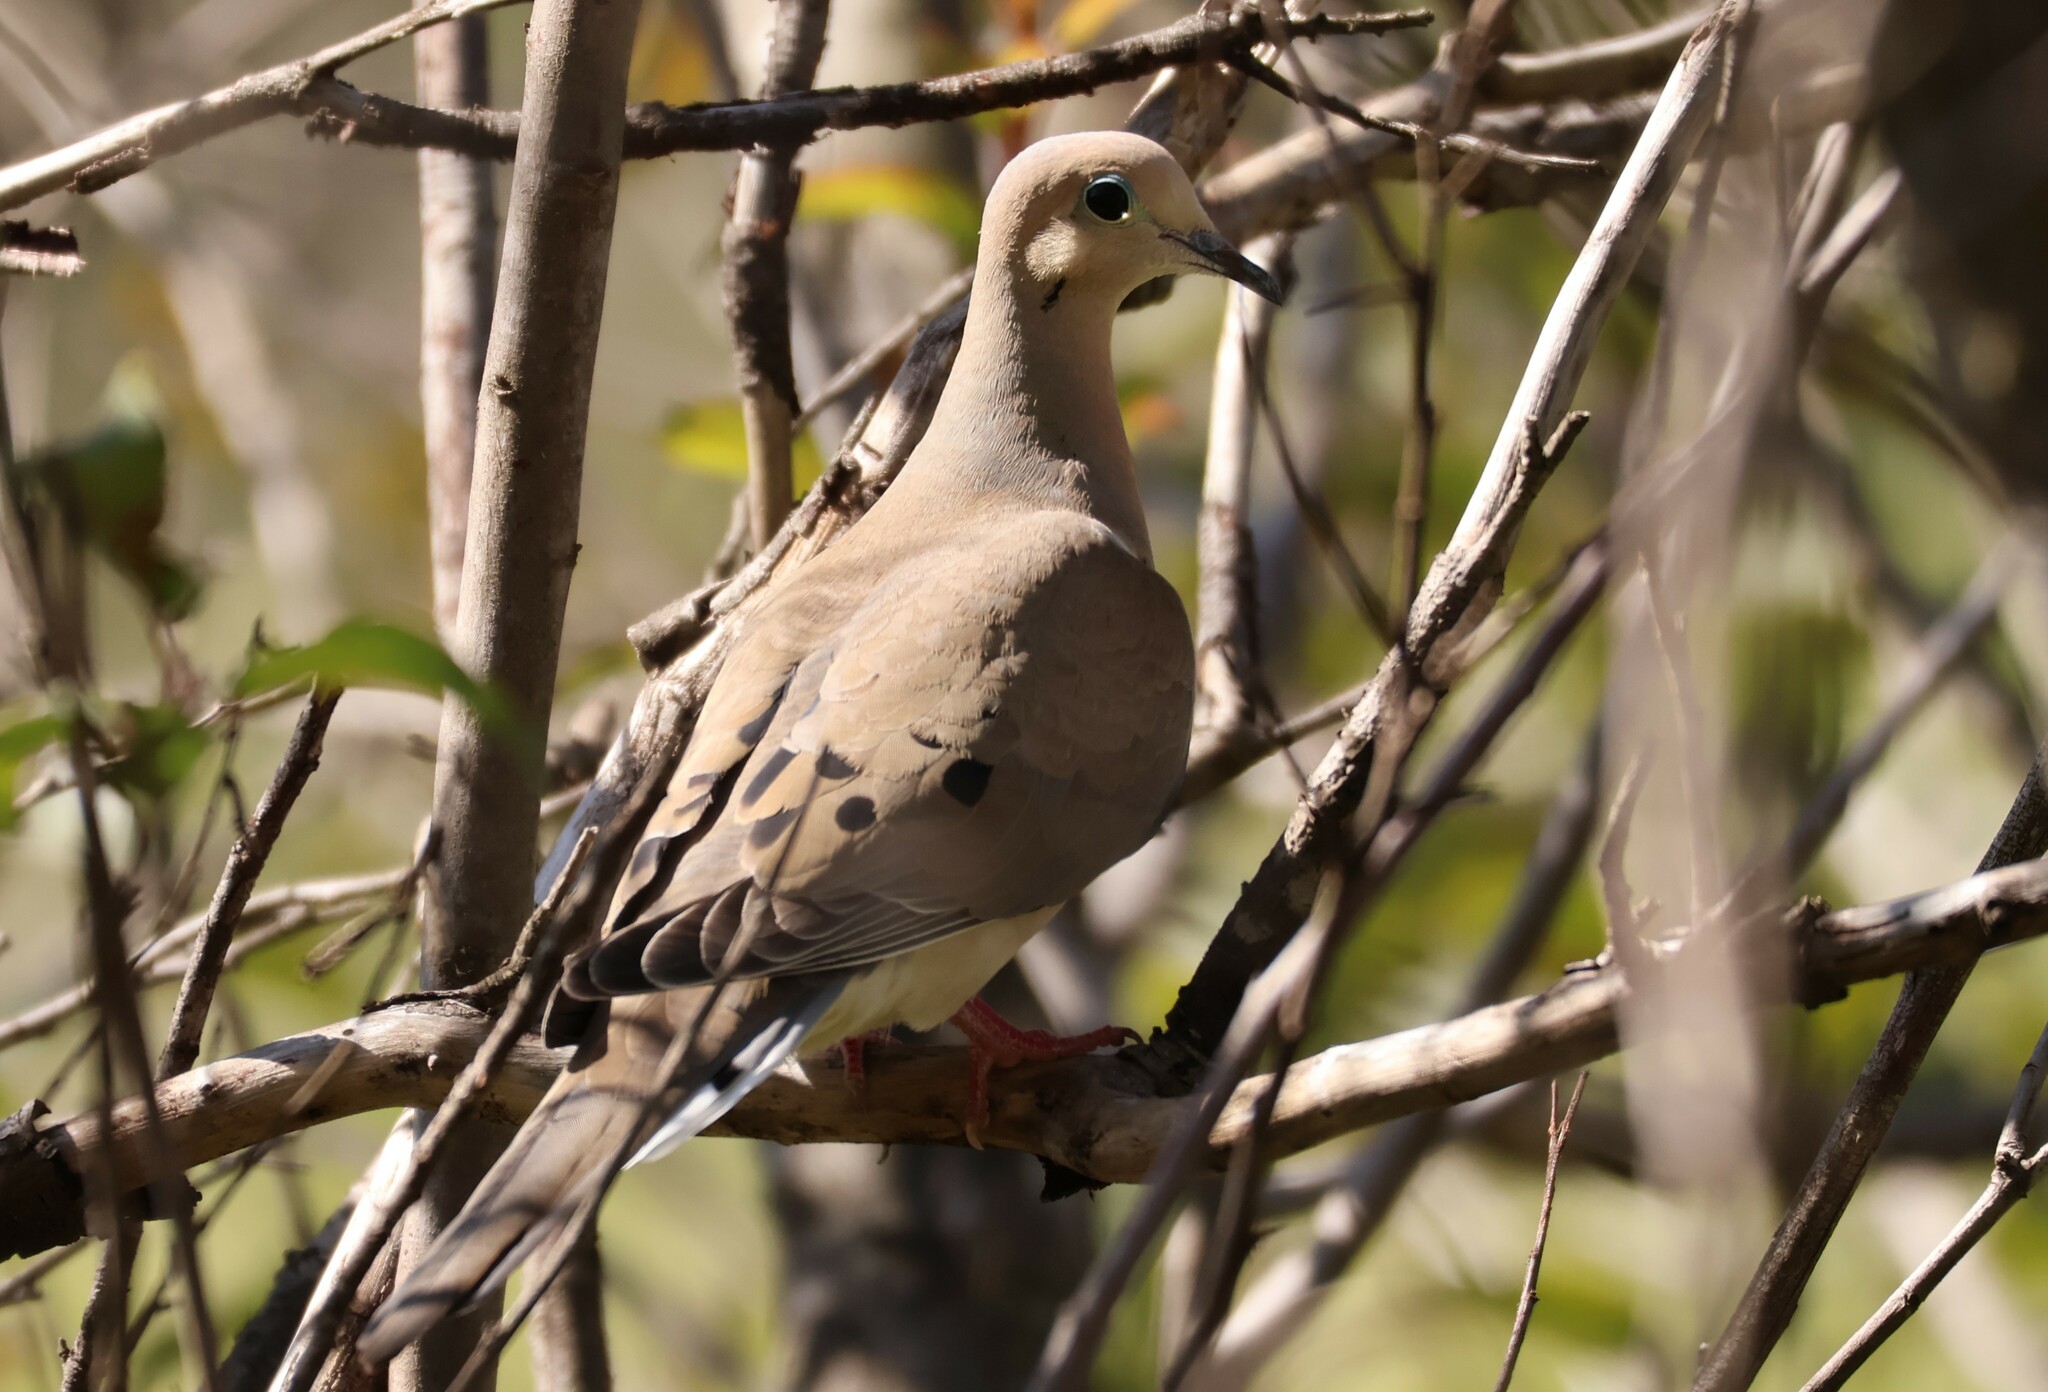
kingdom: Animalia
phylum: Chordata
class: Aves
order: Columbiformes
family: Columbidae
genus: Zenaida
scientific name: Zenaida macroura
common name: Mourning dove
